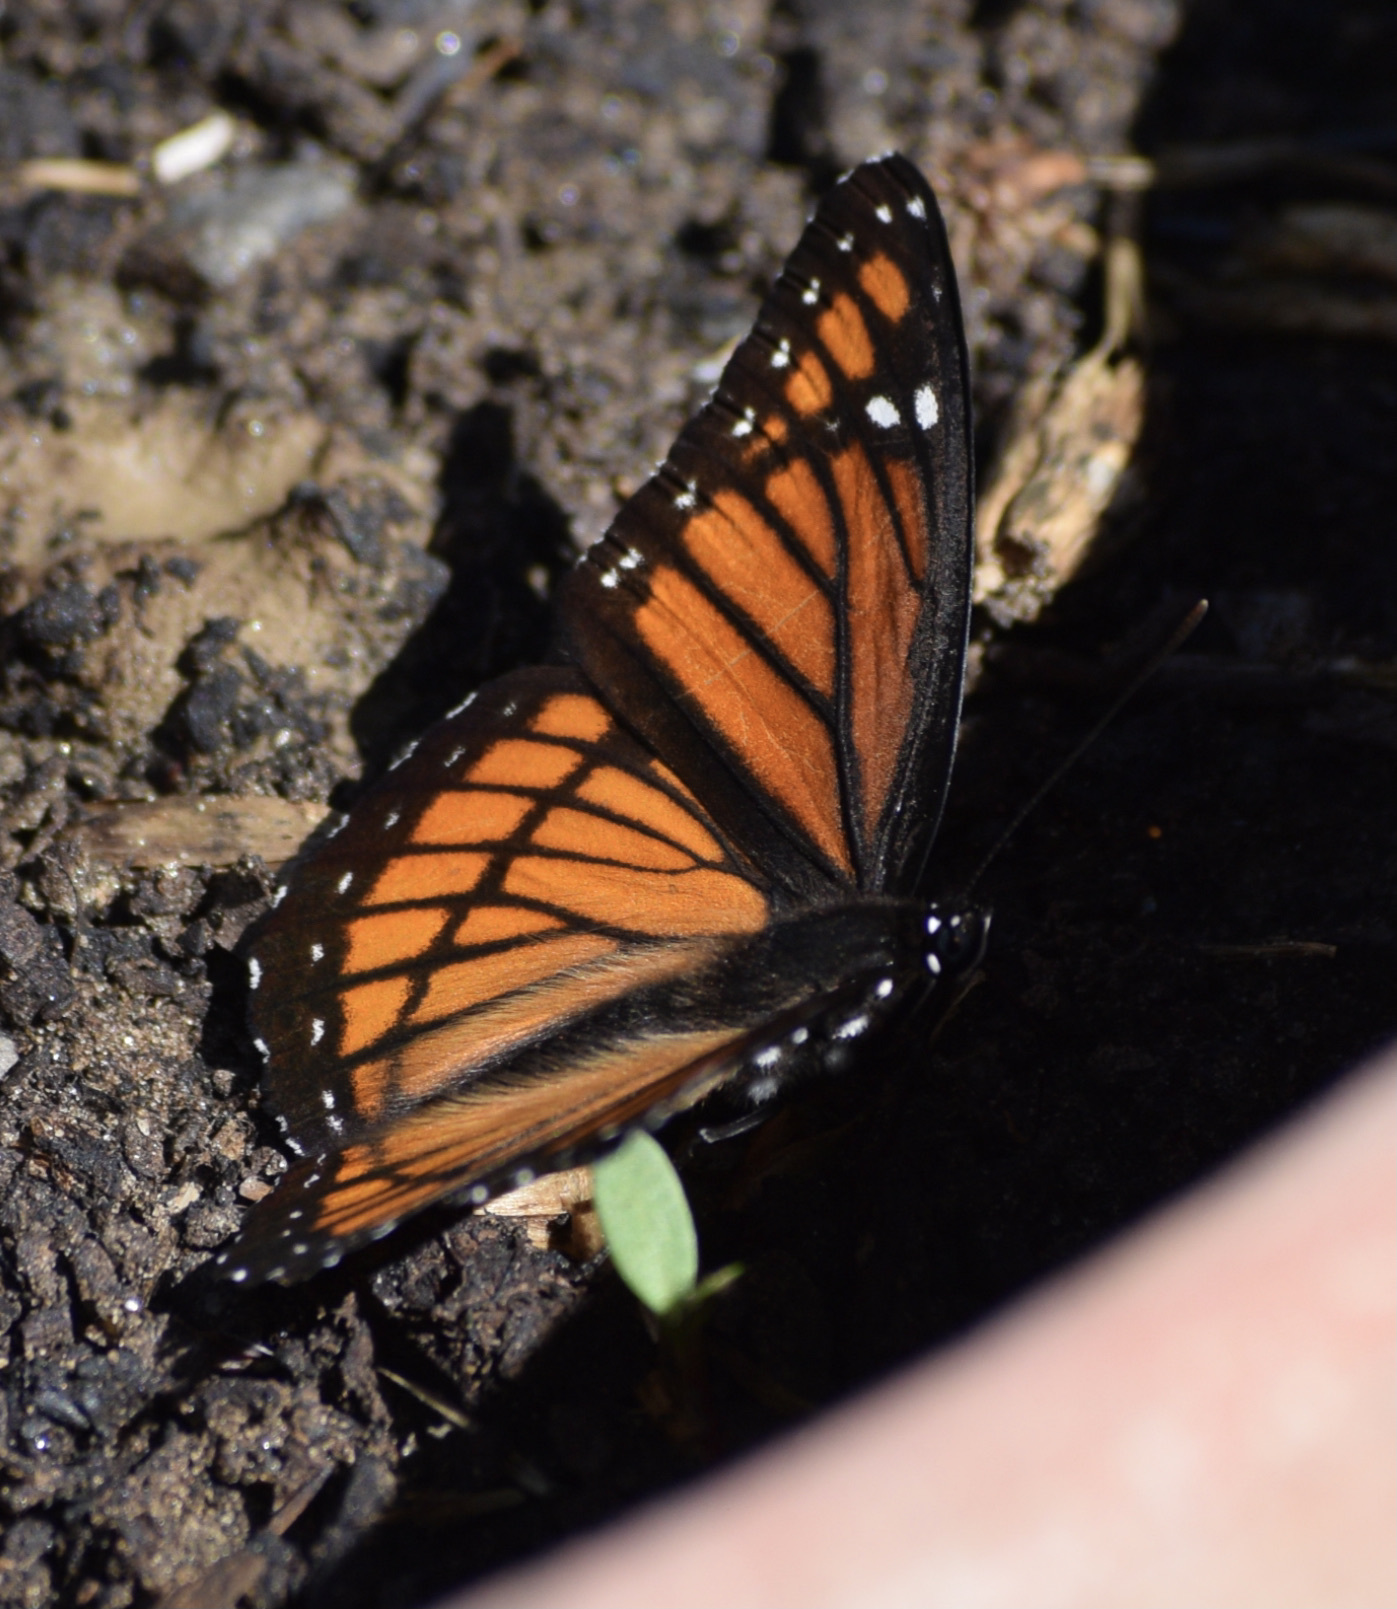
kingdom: Animalia
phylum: Arthropoda
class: Insecta
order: Lepidoptera
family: Nymphalidae
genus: Limenitis
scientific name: Limenitis archippus
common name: Viceroy
